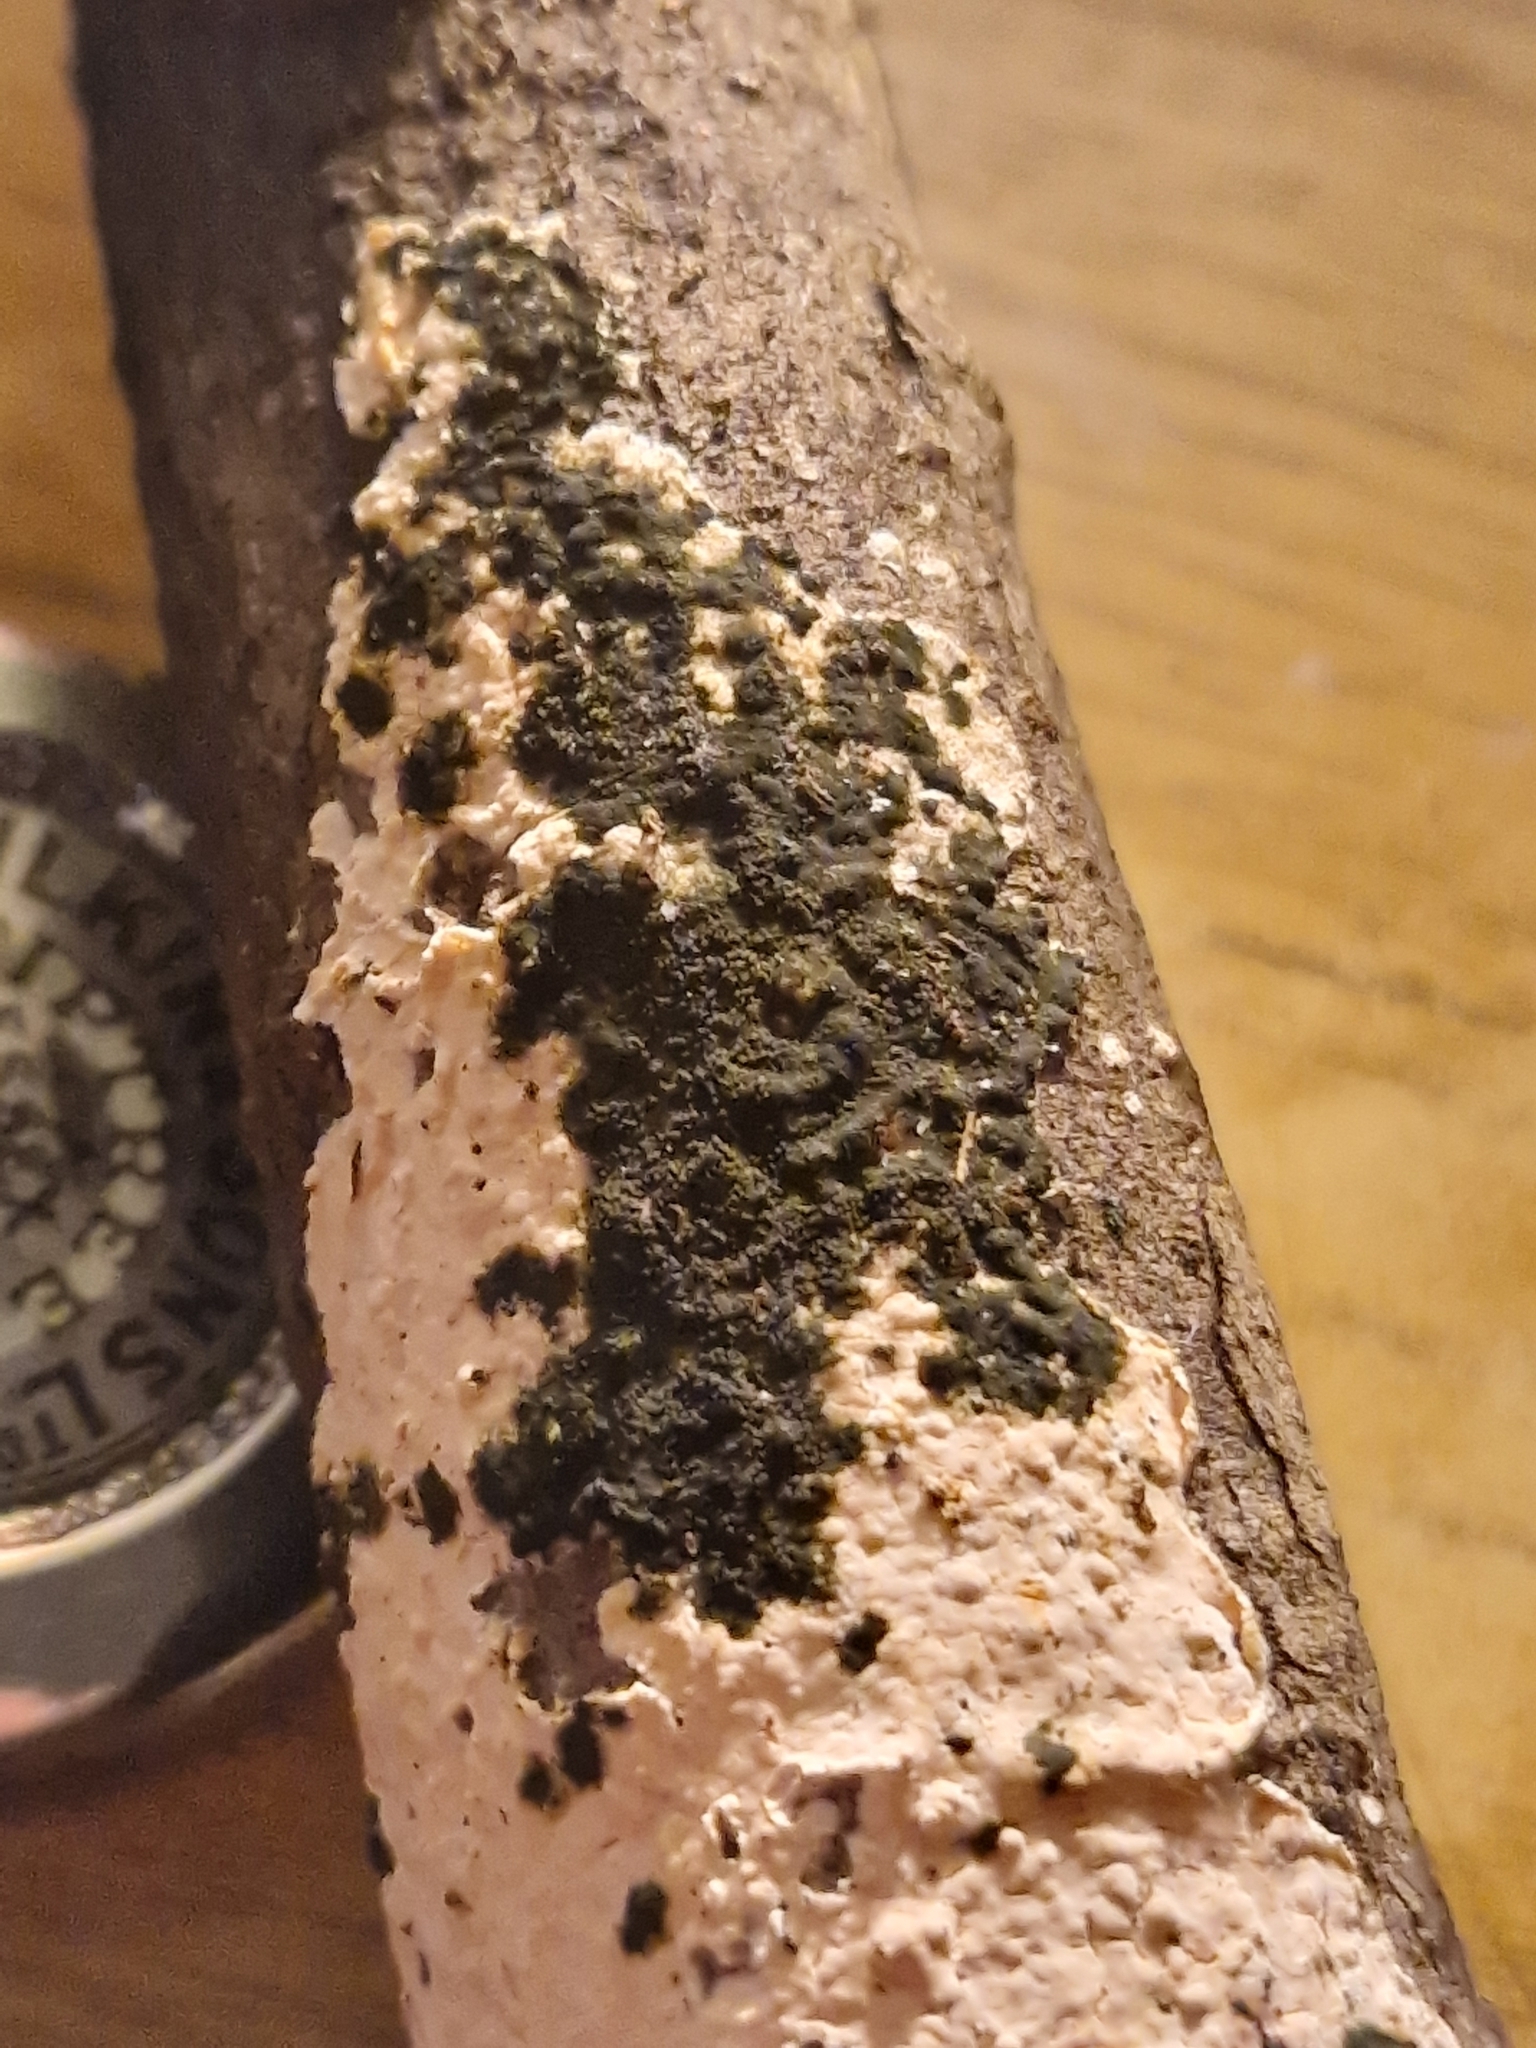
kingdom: Fungi
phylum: Ascomycota
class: Dothideomycetes
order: Pleosporales
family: Melanommataceae
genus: Exosporiella
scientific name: Exosporiella fungorum
